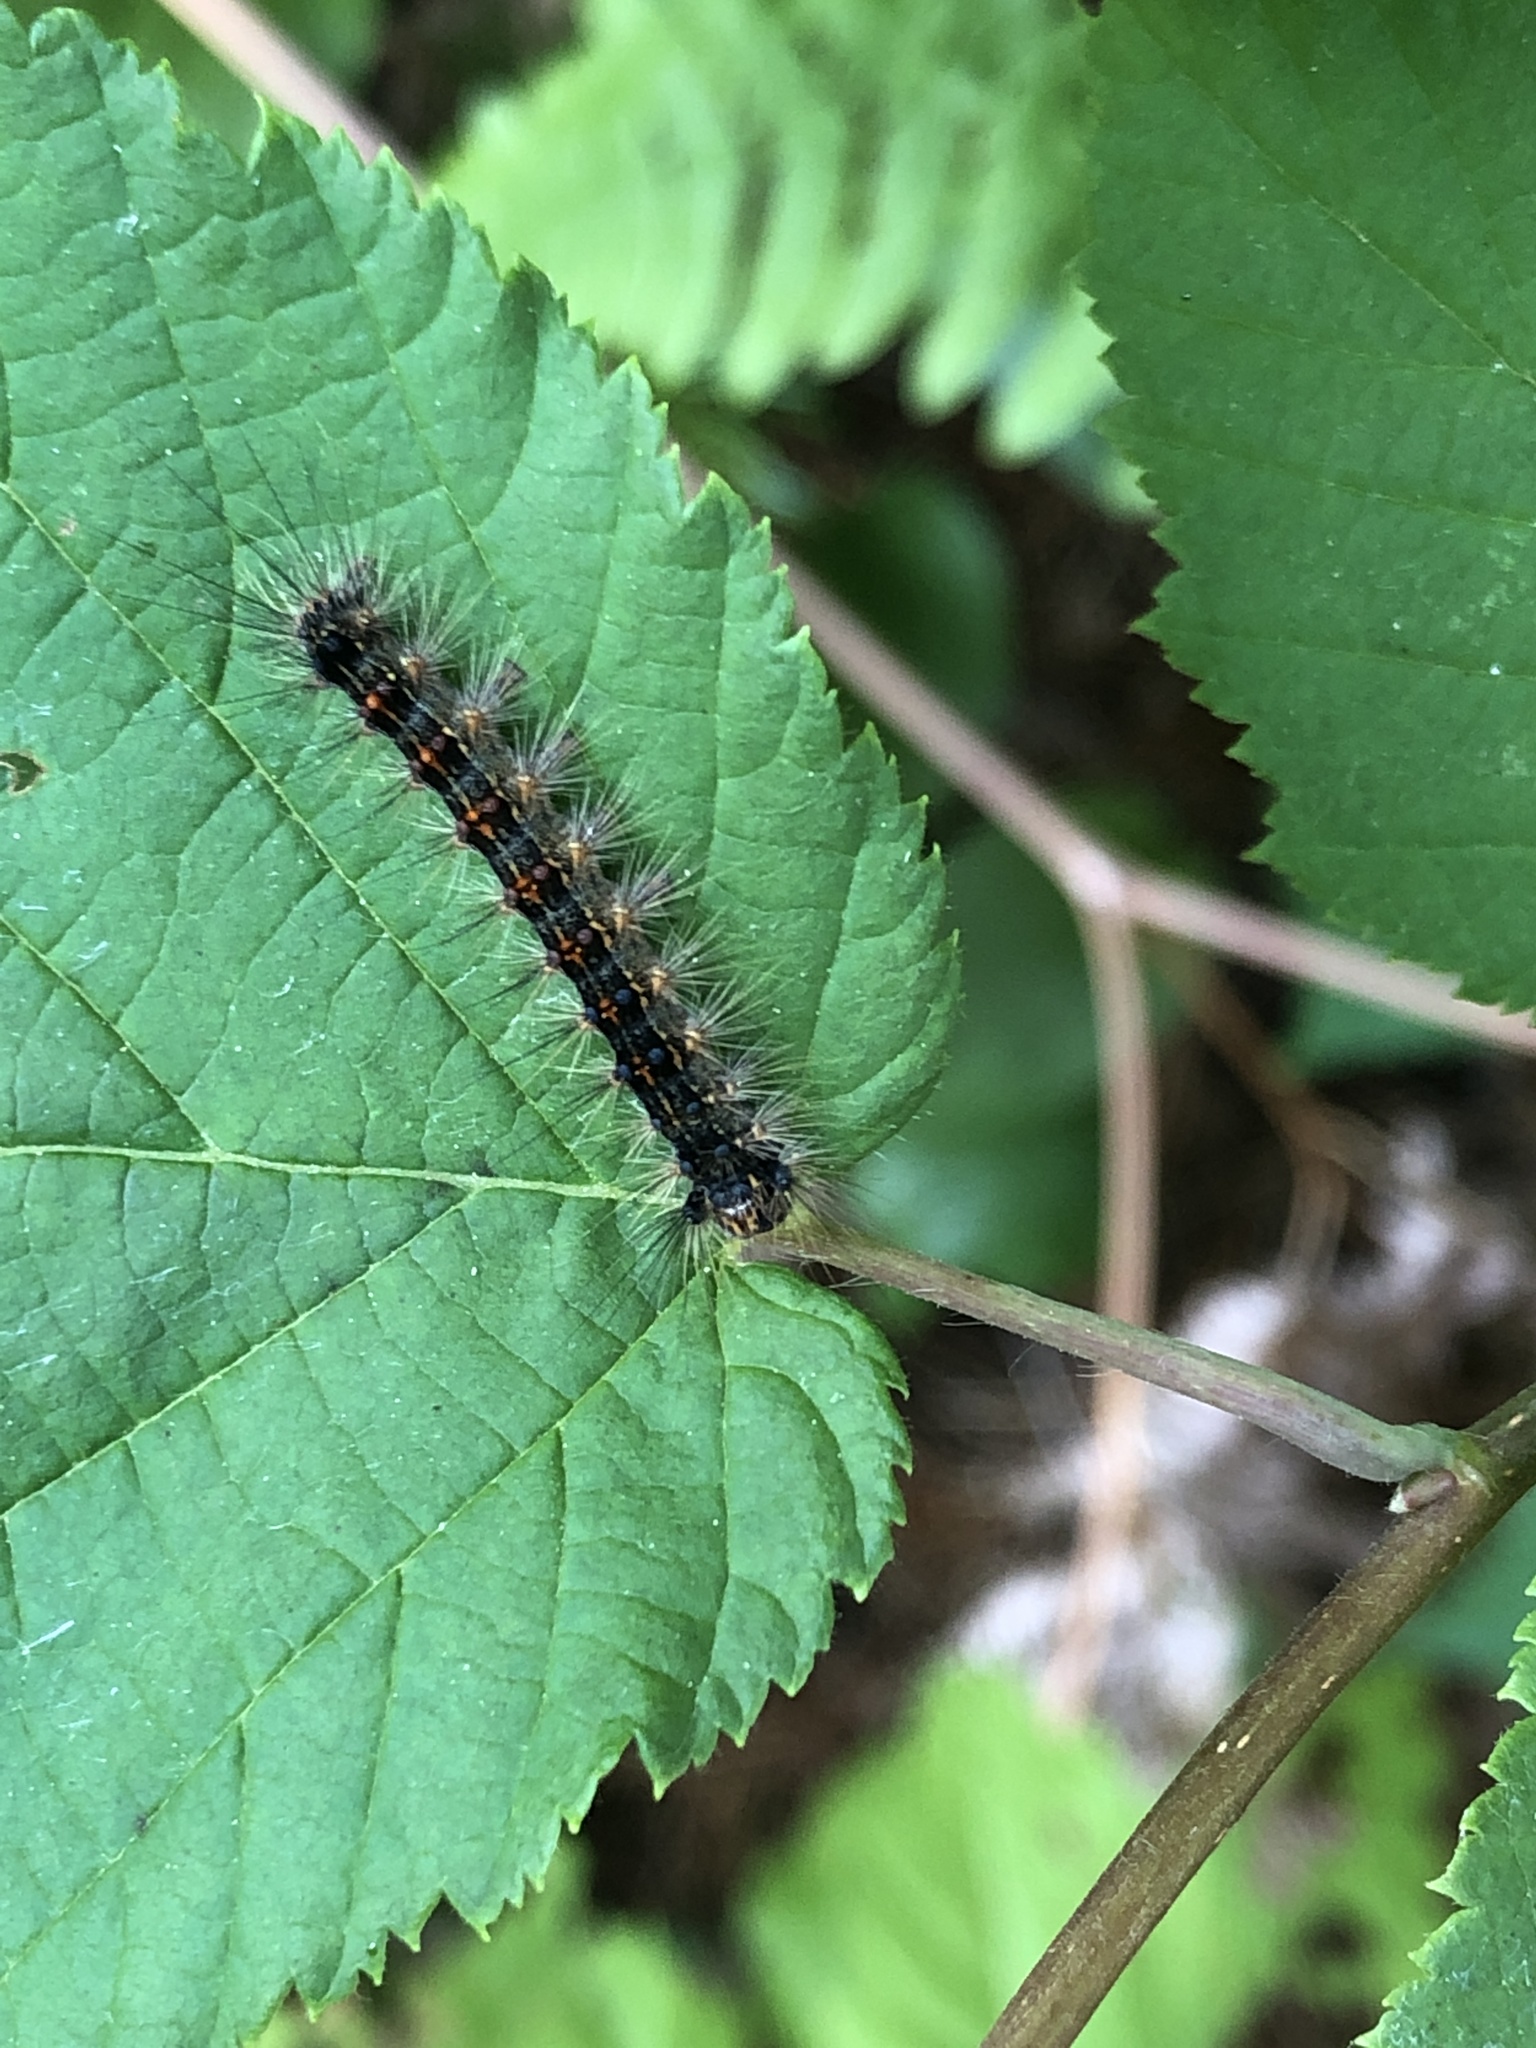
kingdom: Animalia
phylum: Arthropoda
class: Insecta
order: Lepidoptera
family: Erebidae
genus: Lymantria
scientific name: Lymantria dispar
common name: Gypsy moth
